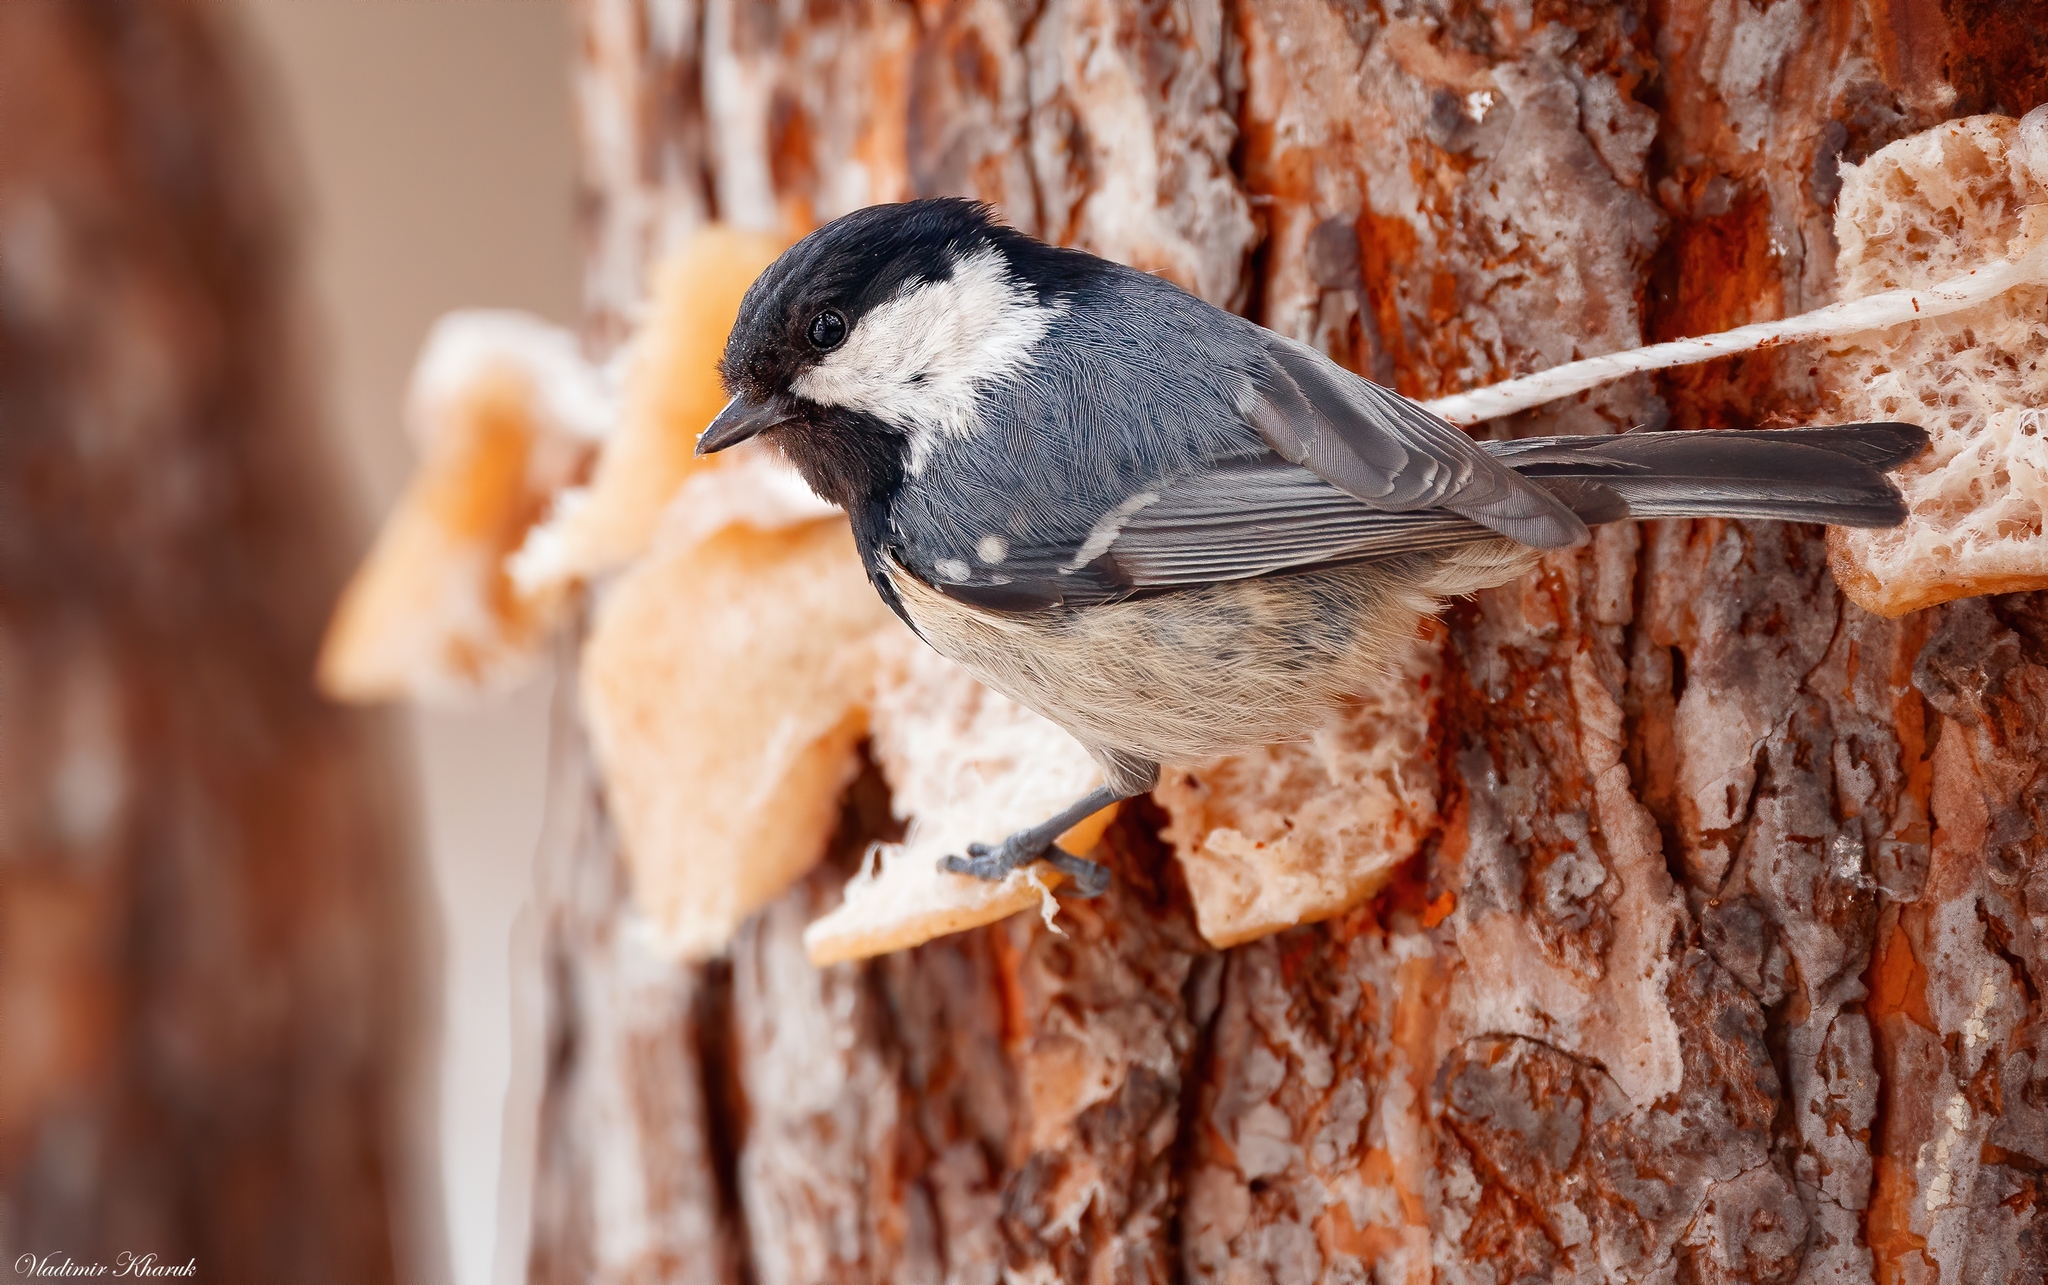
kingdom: Animalia
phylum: Chordata
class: Aves
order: Passeriformes
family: Paridae
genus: Periparus
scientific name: Periparus ater
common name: Coal tit
